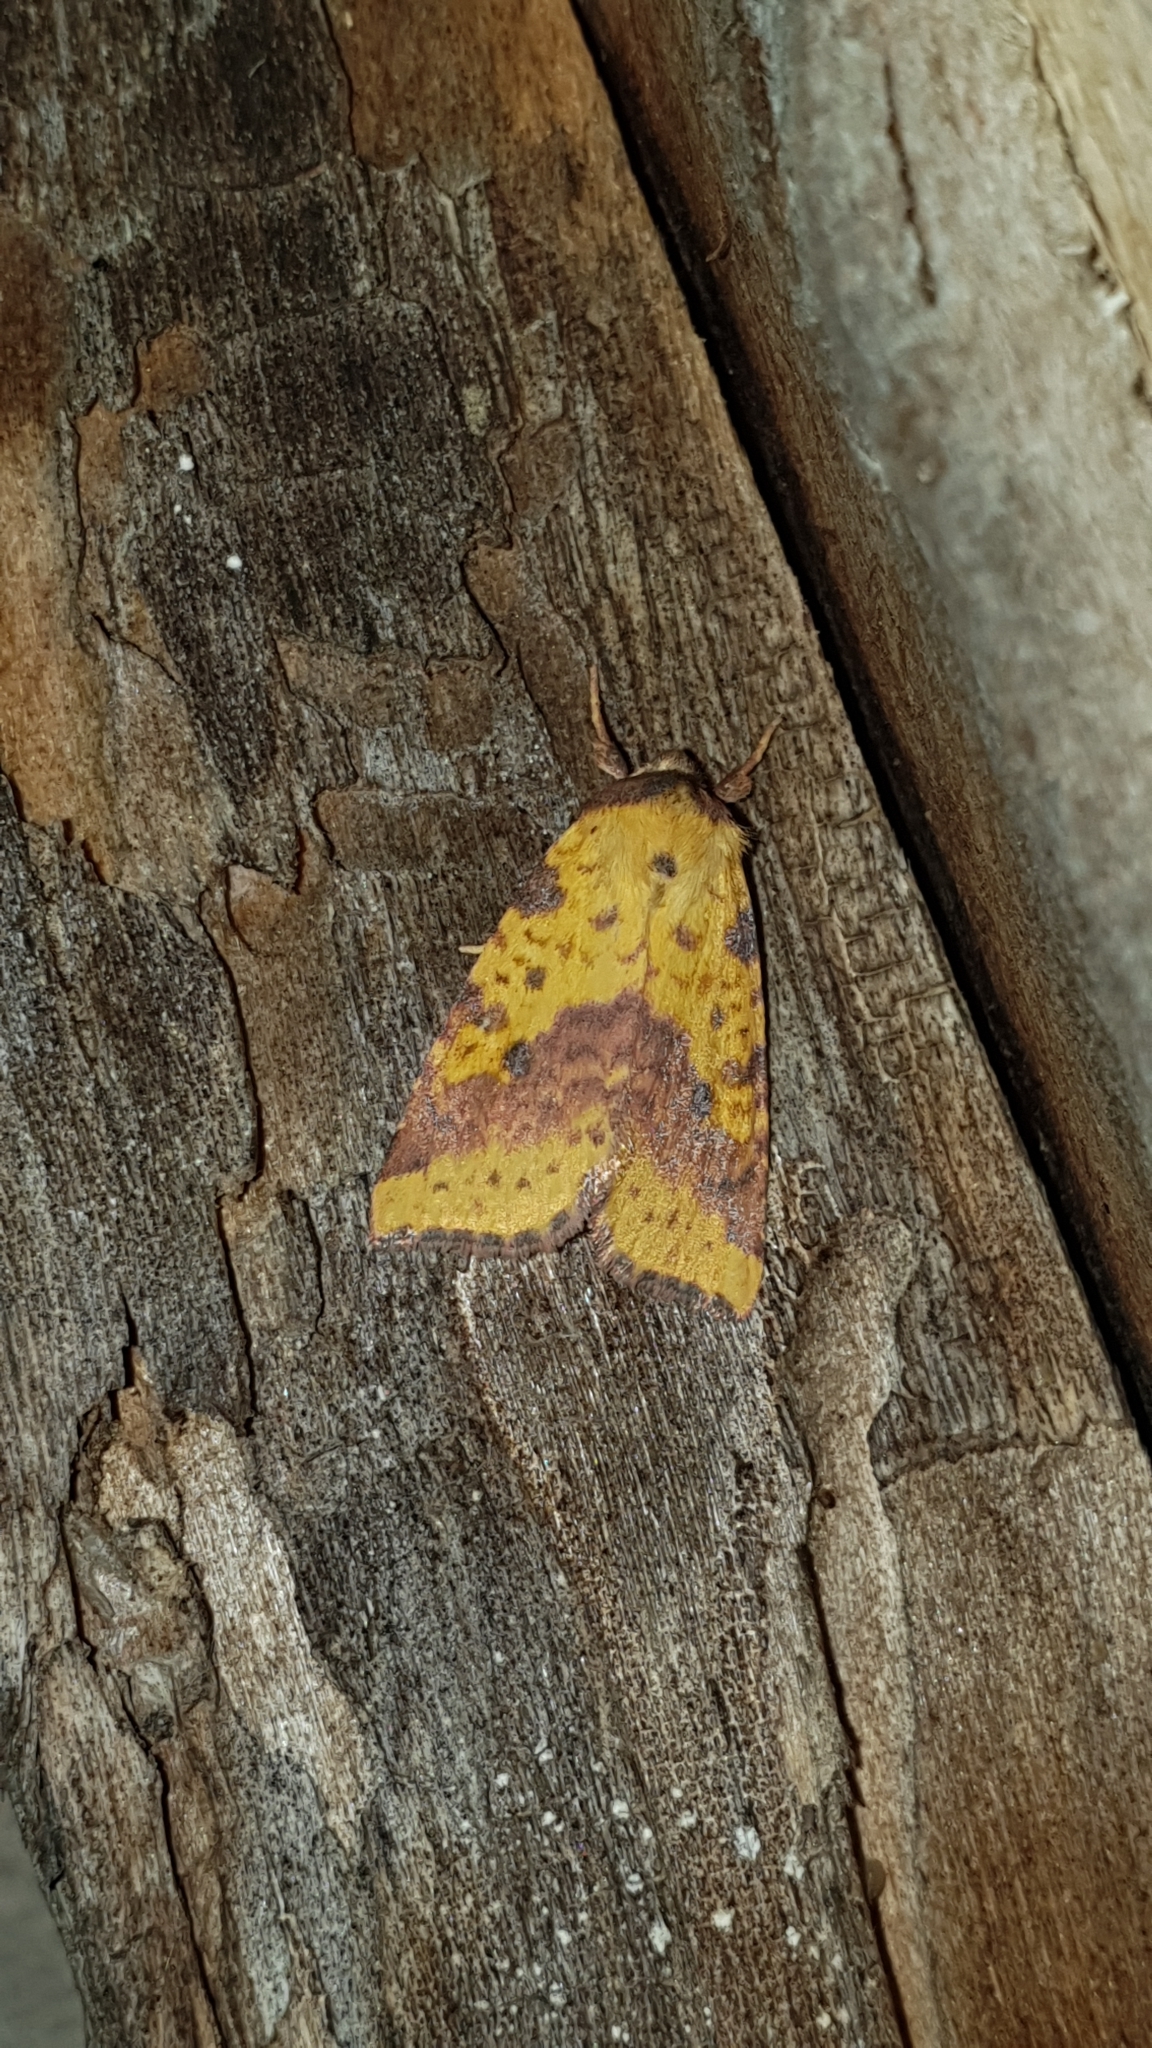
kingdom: Animalia
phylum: Arthropoda
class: Insecta
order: Lepidoptera
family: Noctuidae
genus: Xanthia
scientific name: Xanthia togata
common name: Pink-barred sallow
